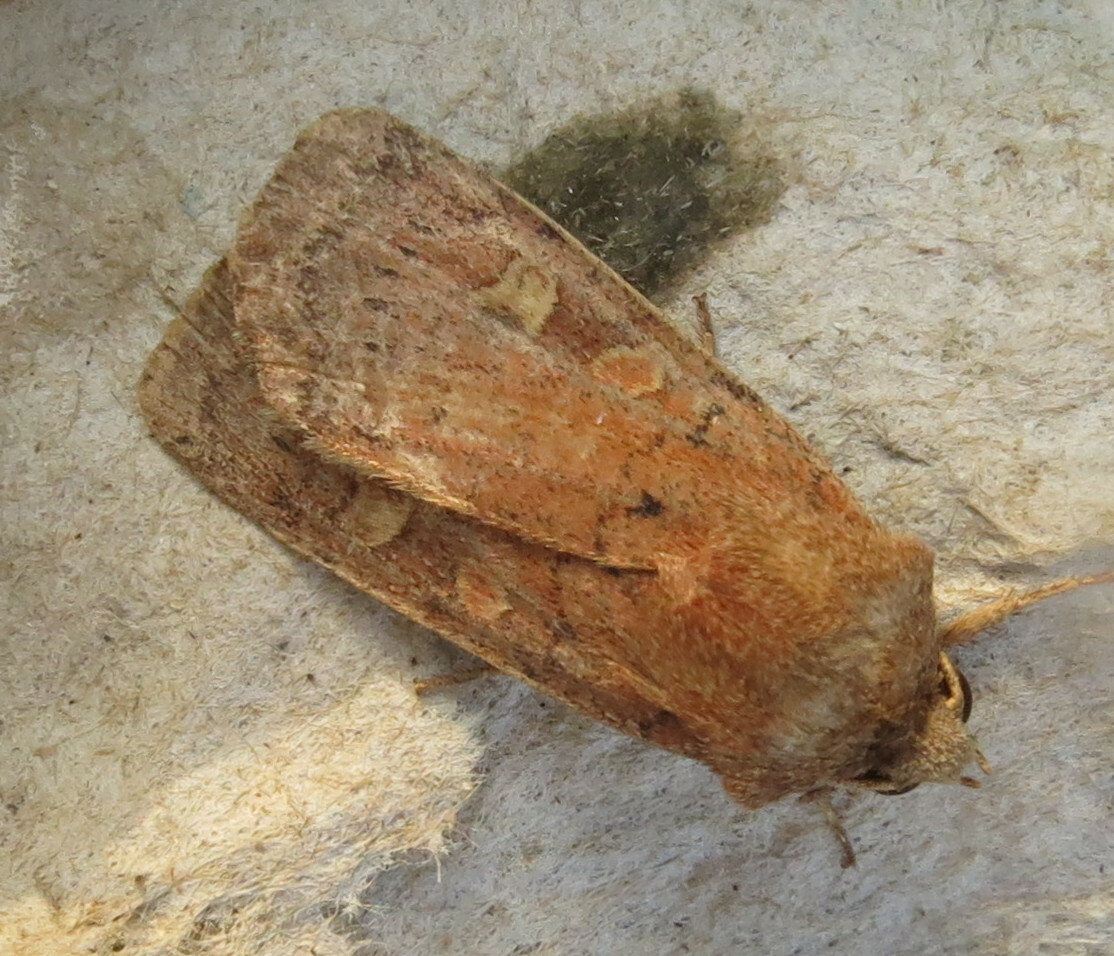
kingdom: Animalia
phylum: Arthropoda
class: Insecta
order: Lepidoptera
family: Noctuidae
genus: Xestia
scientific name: Xestia xanthographa
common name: Square-spot rustic
